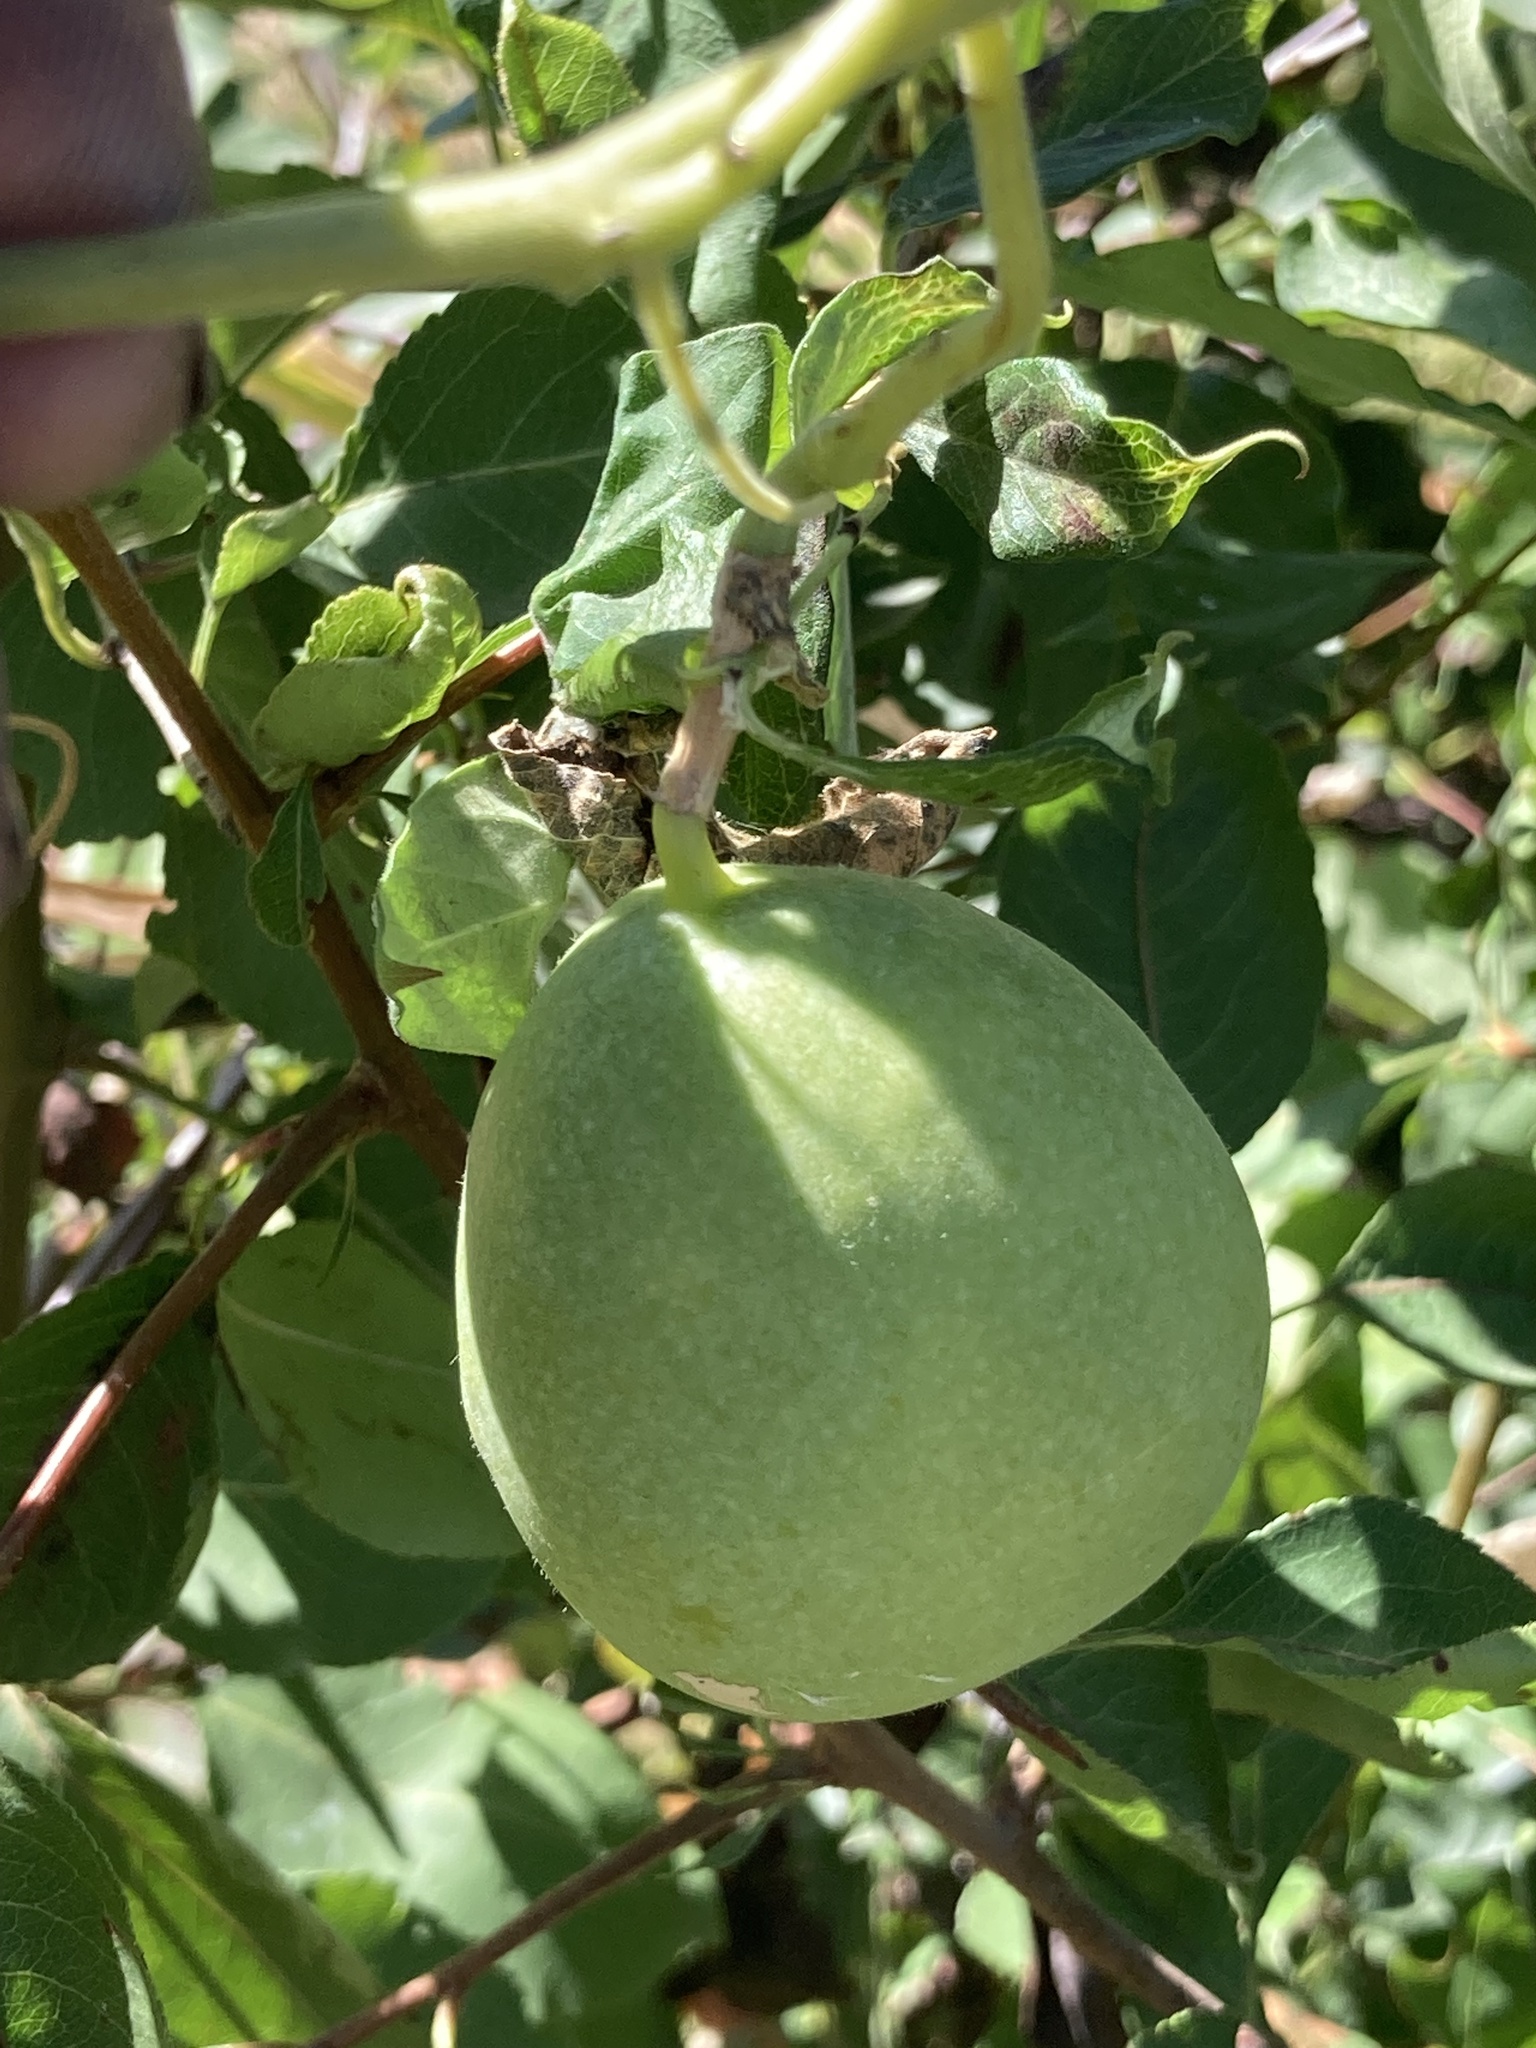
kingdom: Plantae
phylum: Tracheophyta
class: Magnoliopsida
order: Malpighiales
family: Passifloraceae
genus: Passiflora
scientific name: Passiflora incarnata
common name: Apricot-vine
